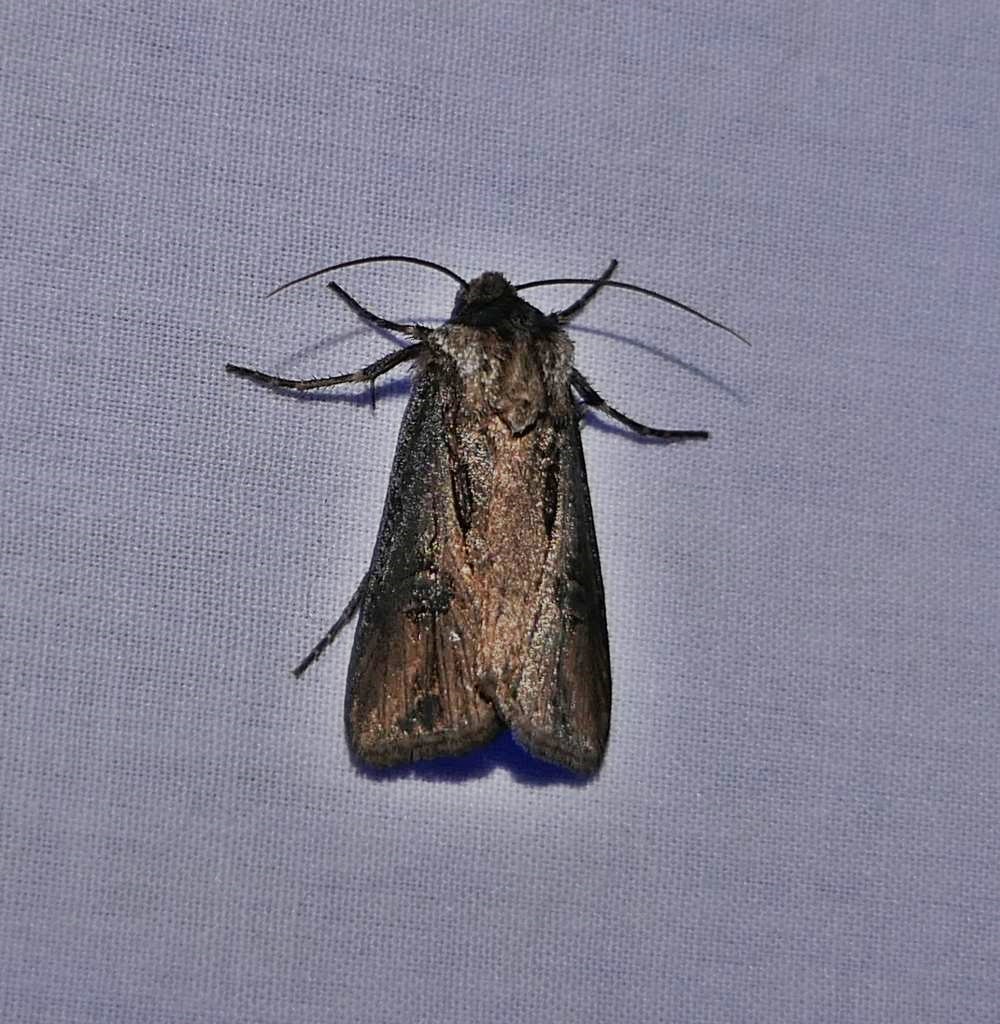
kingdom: Animalia
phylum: Arthropoda
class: Insecta
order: Lepidoptera
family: Noctuidae
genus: Agrotis
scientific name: Agrotis venerabilis
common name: Venerable dart
